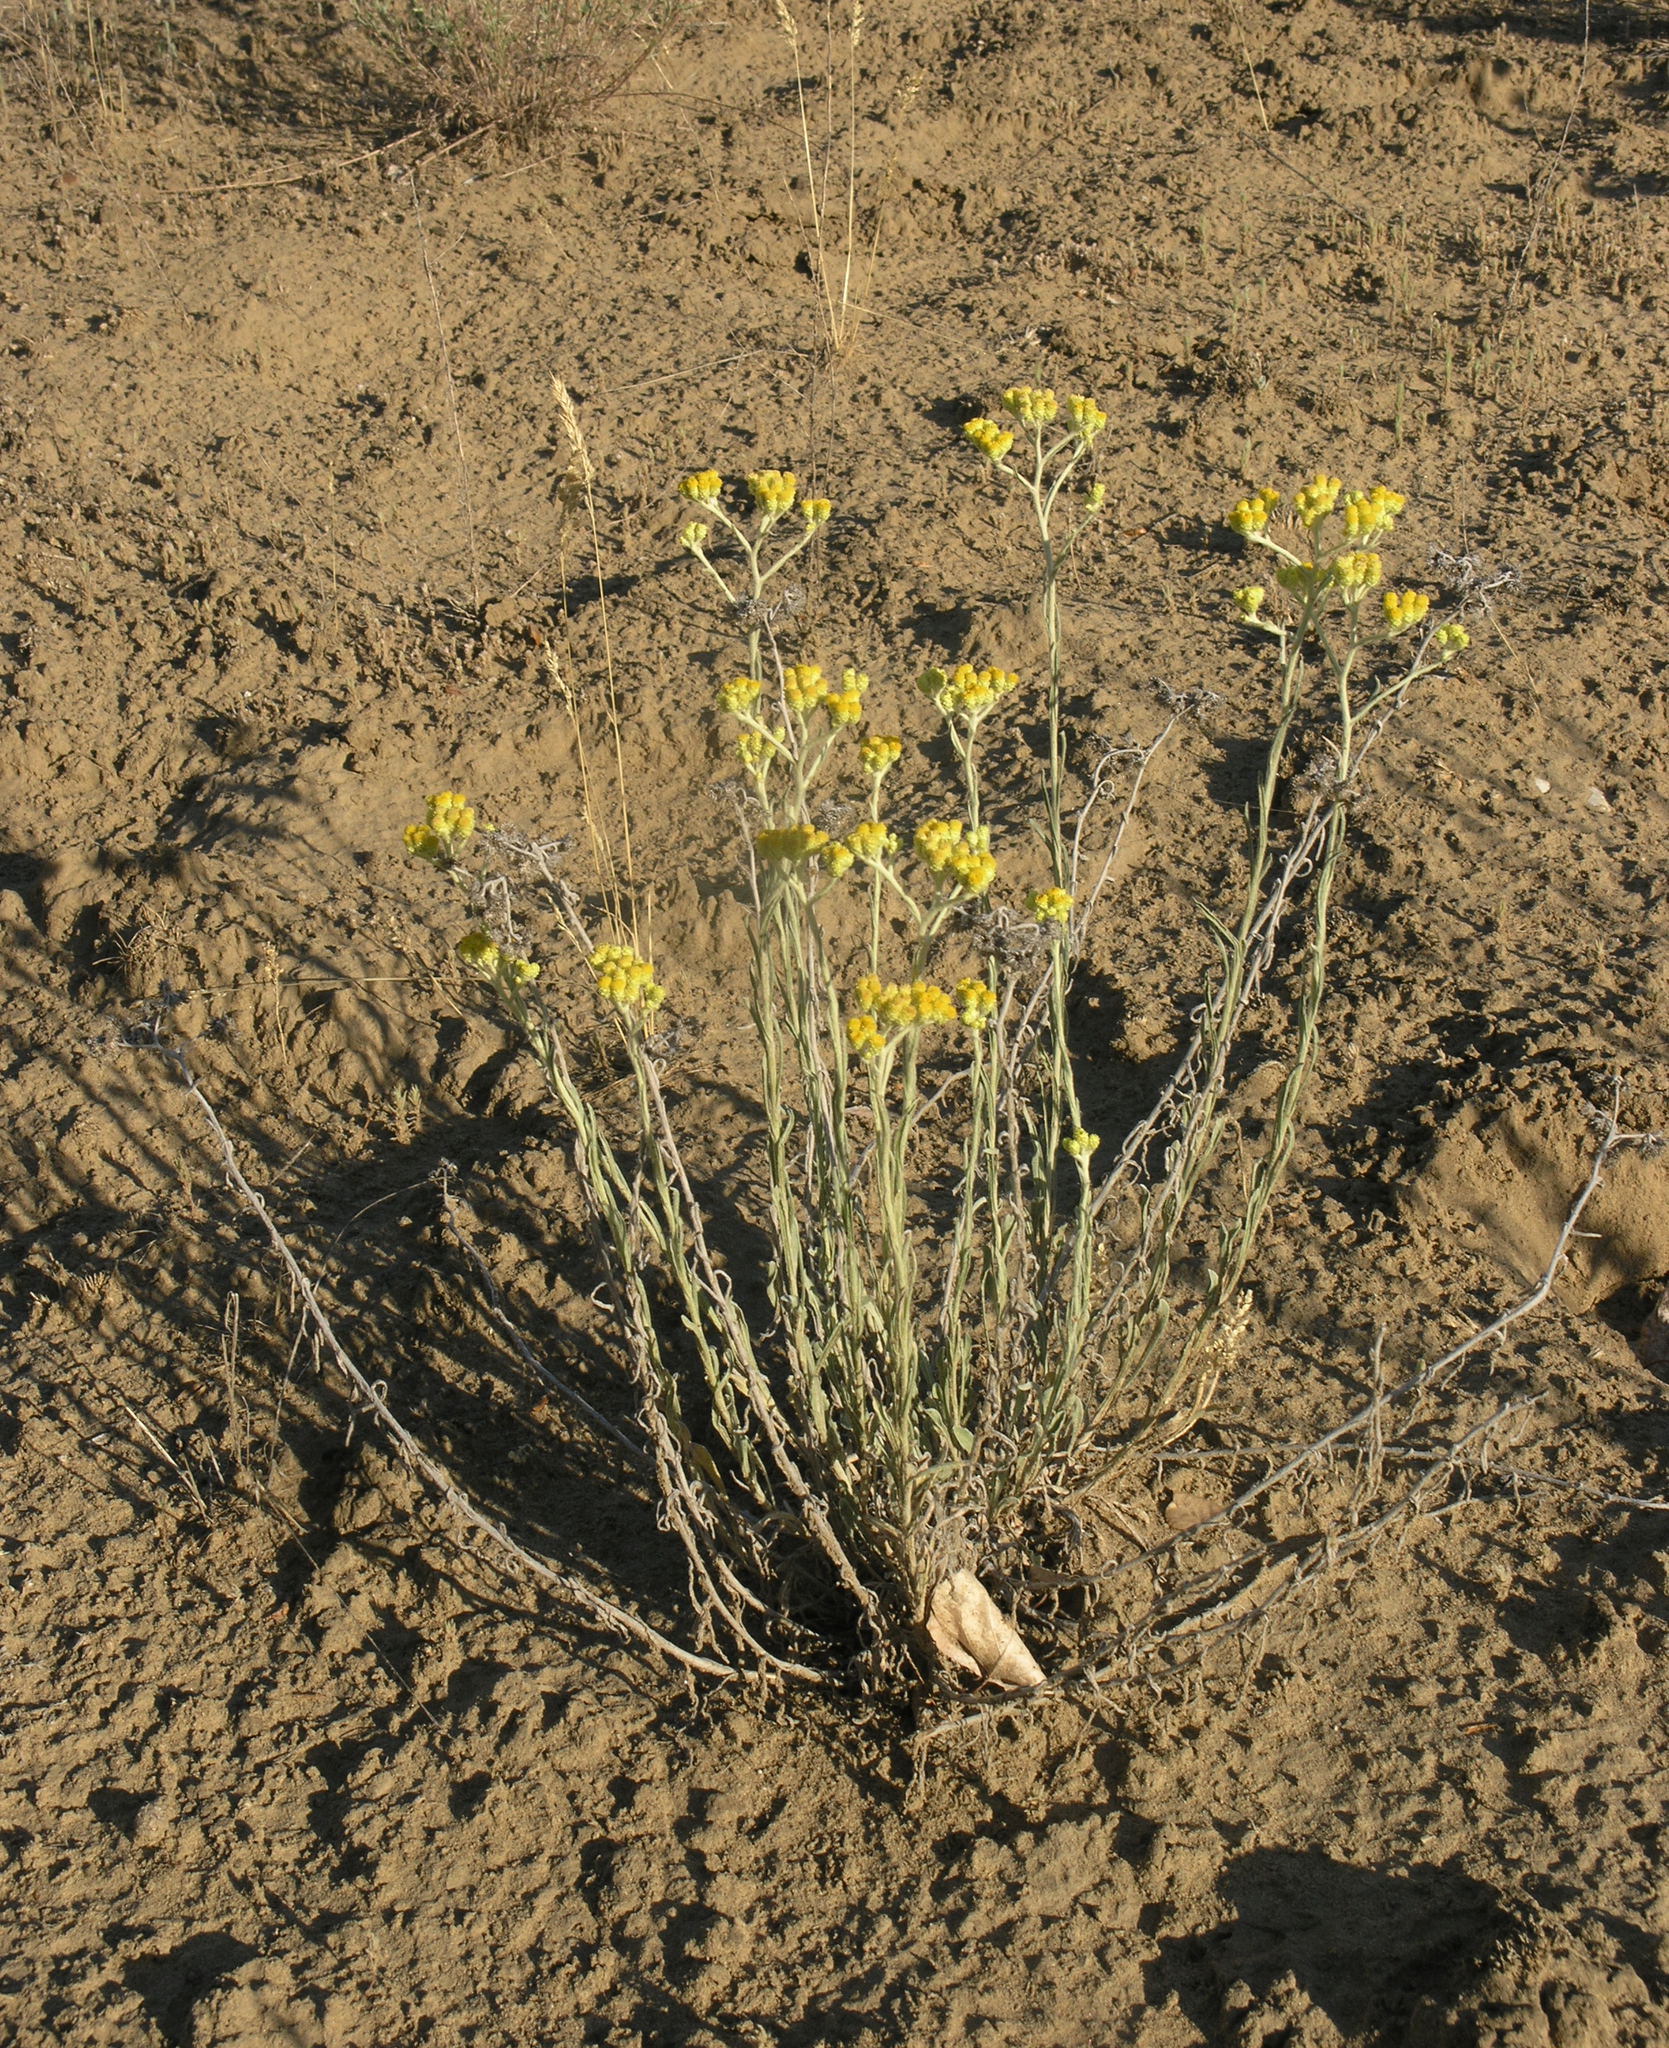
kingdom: Plantae
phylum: Tracheophyta
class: Magnoliopsida
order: Asterales
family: Asteraceae
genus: Helichrysum
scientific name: Helichrysum arenarium
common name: Strawflower
